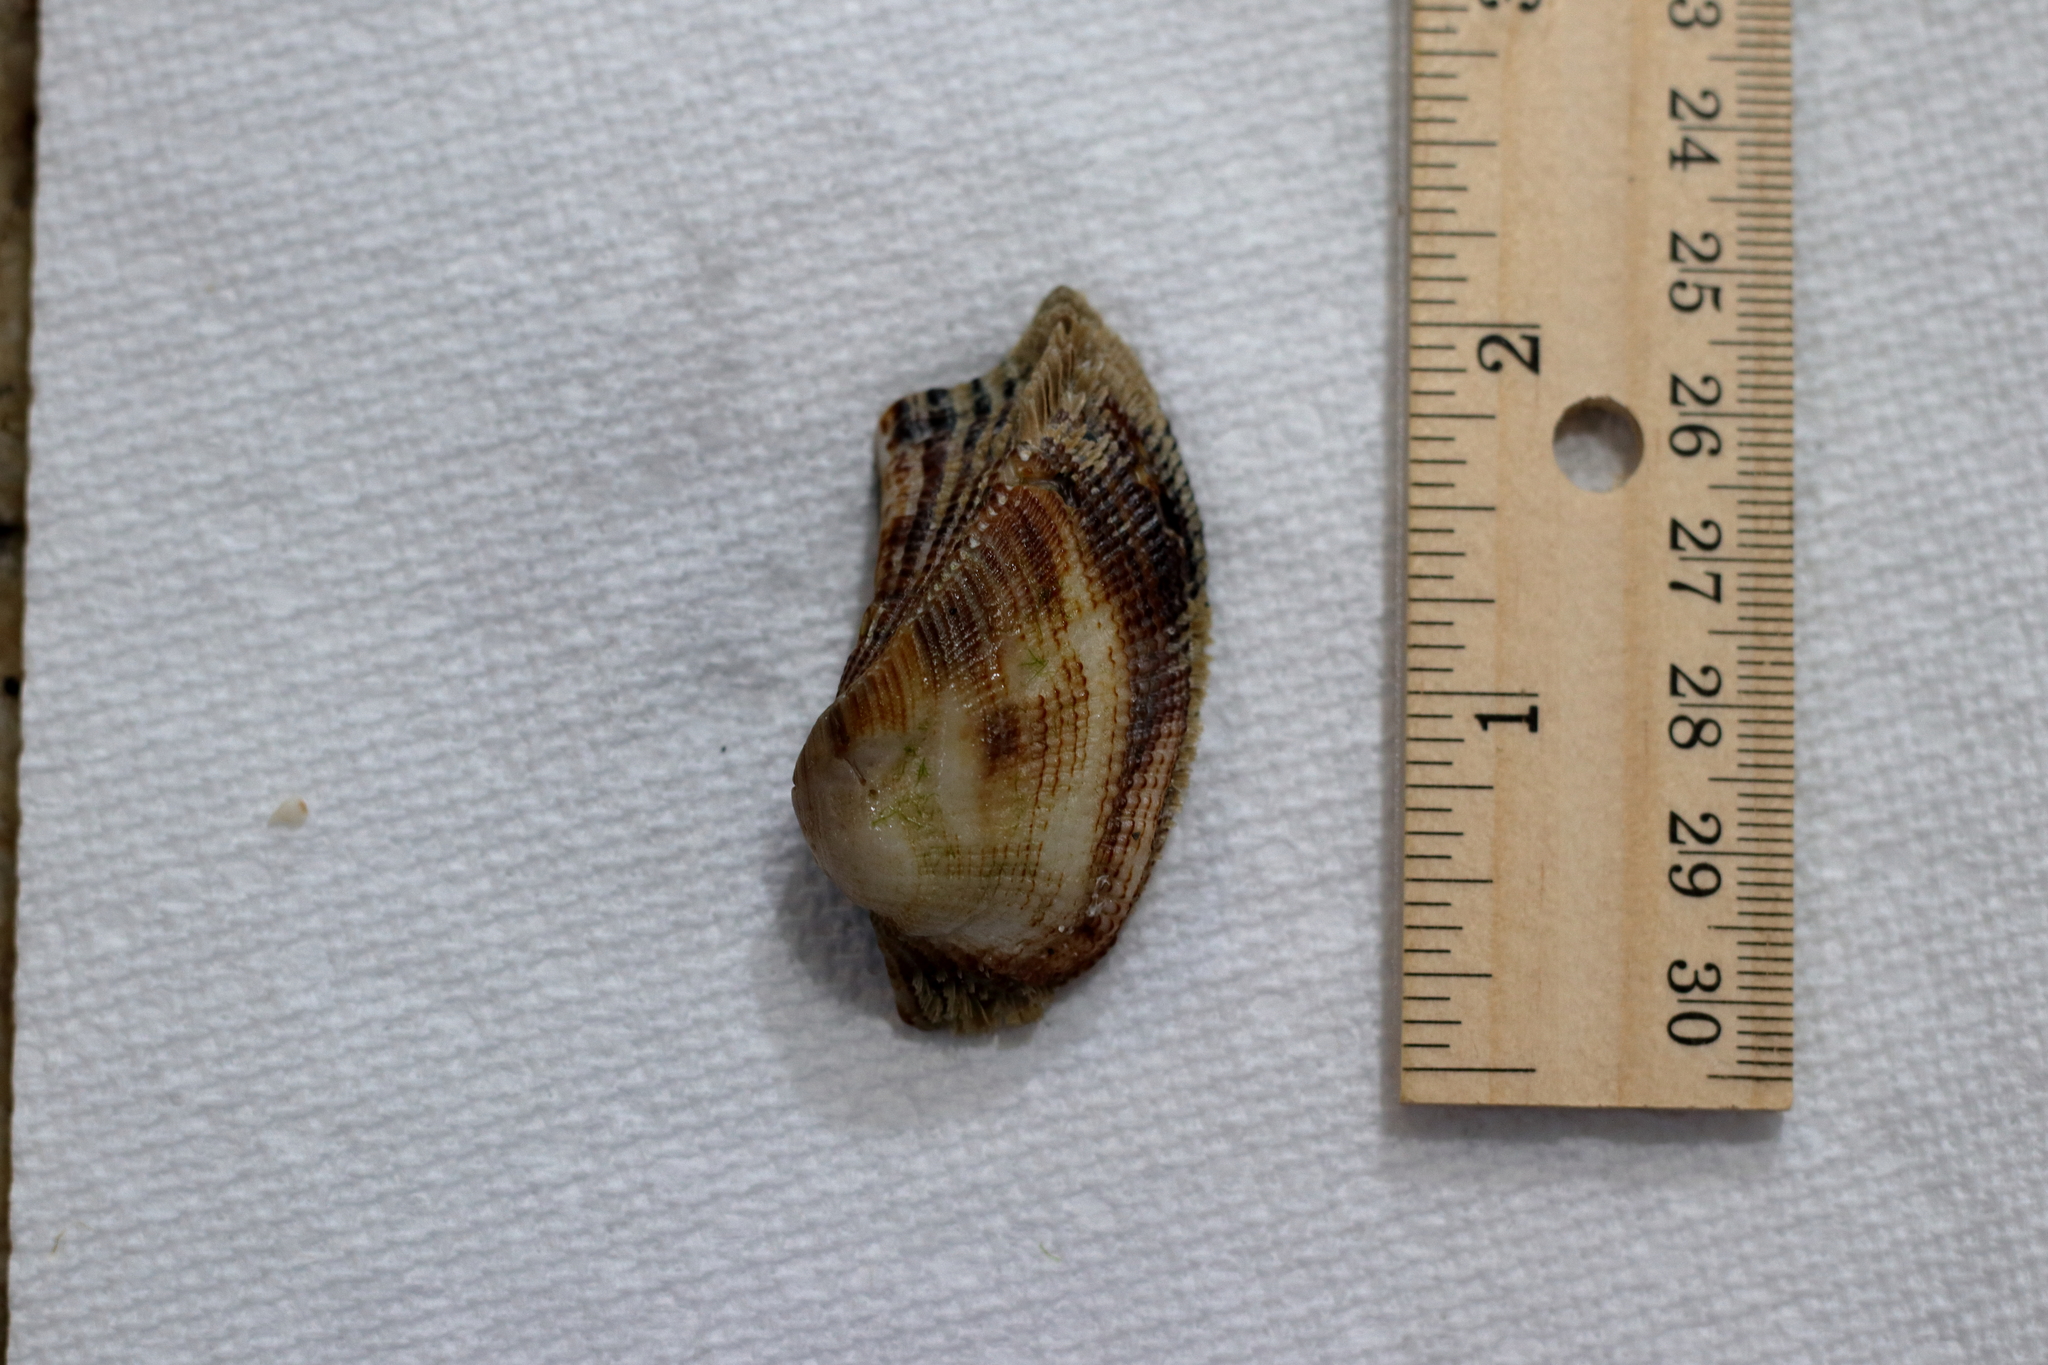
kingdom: Animalia
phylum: Mollusca
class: Bivalvia
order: Arcida
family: Arcidae
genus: Lamarcka
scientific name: Lamarcka imbricata
